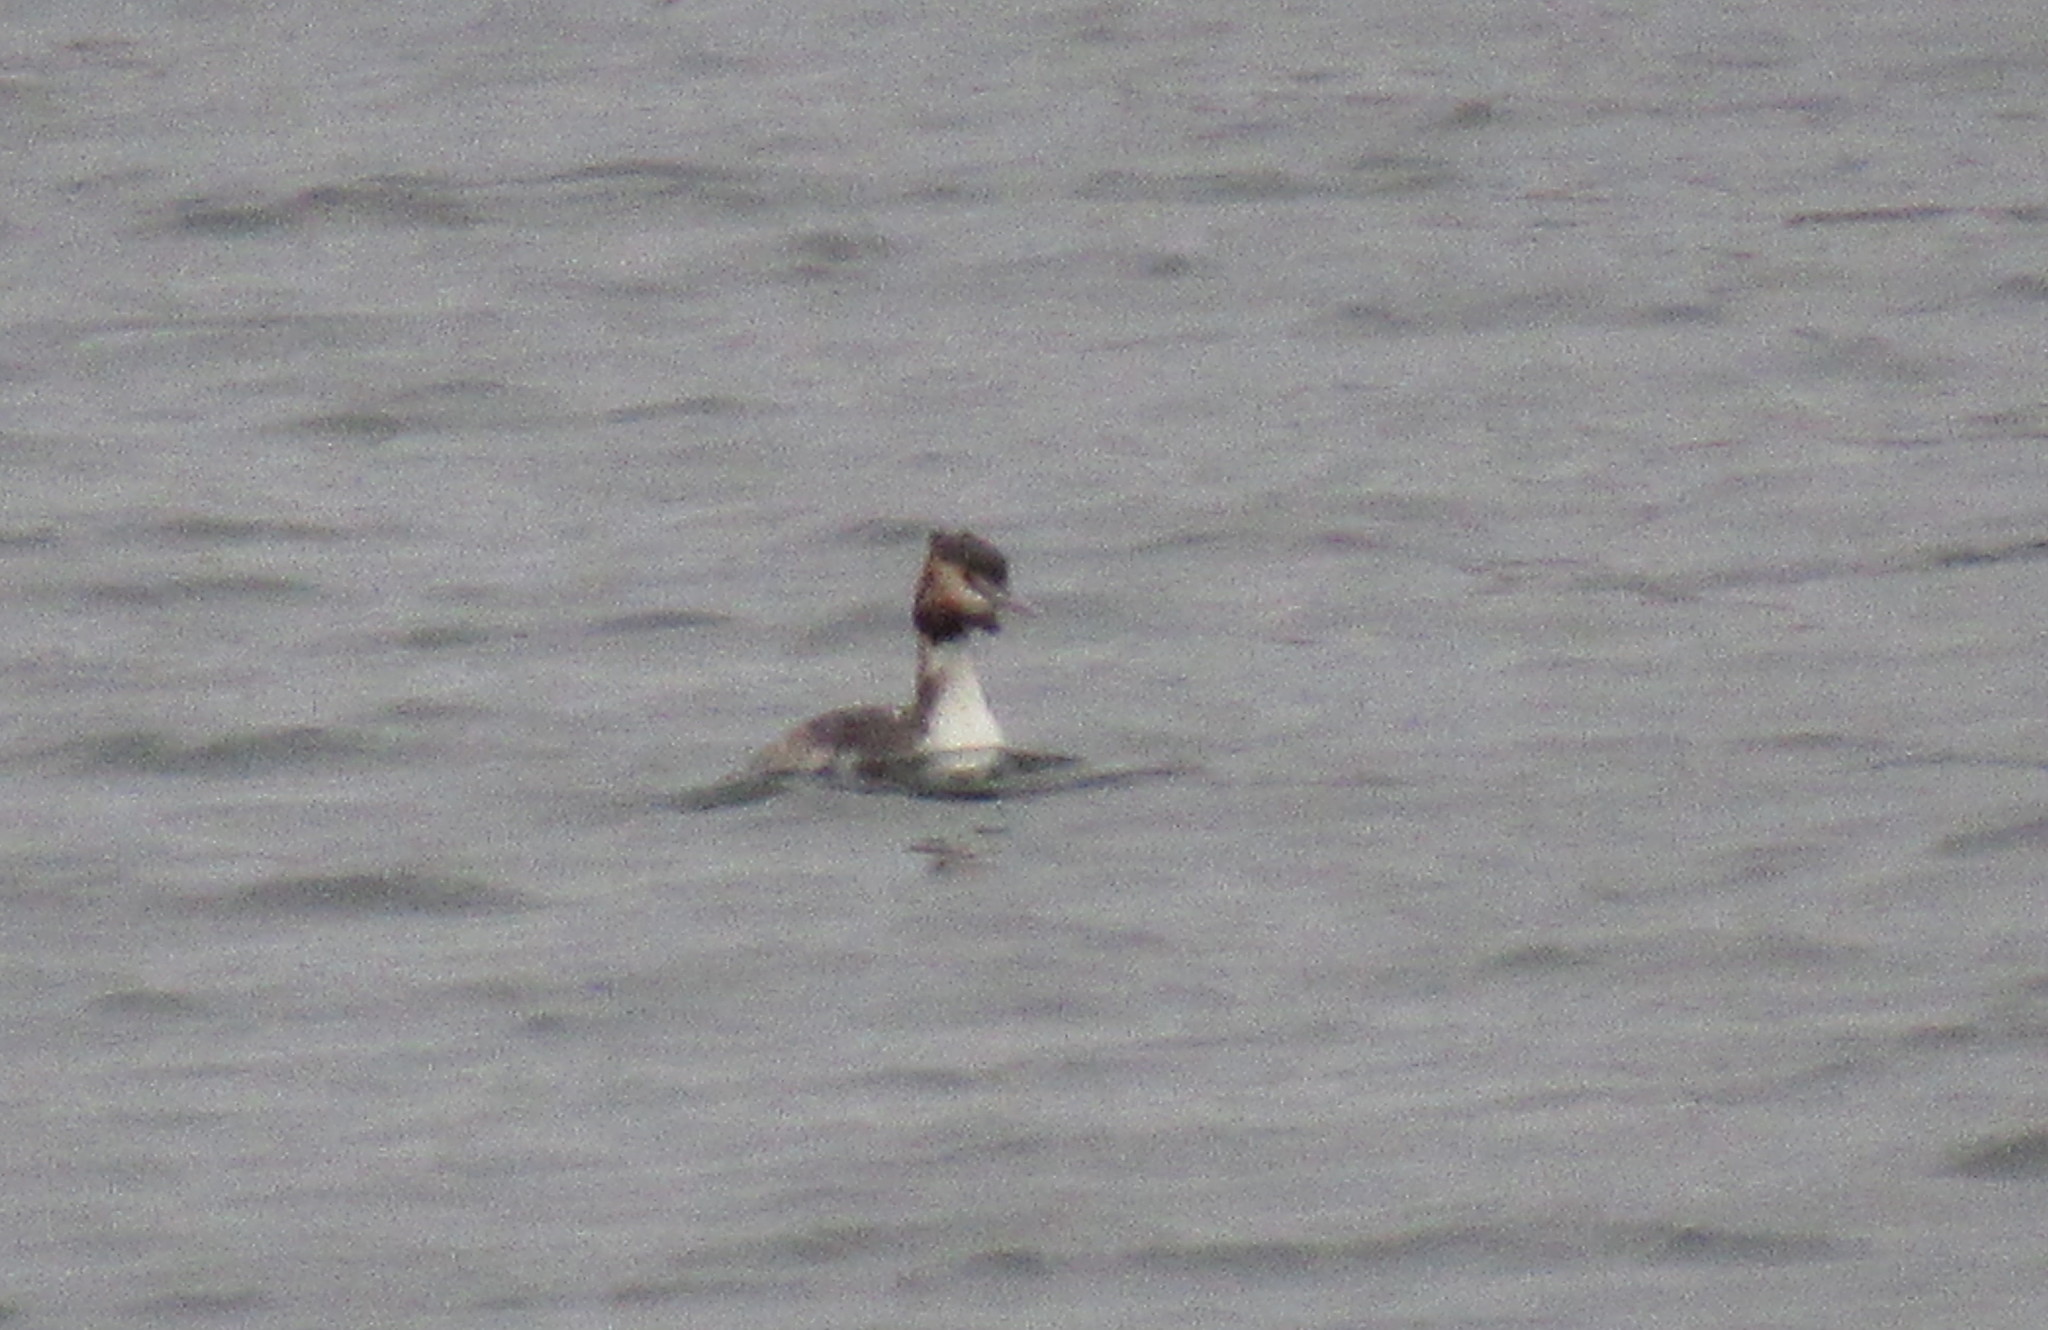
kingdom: Animalia
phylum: Chordata
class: Aves
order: Podicipediformes
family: Podicipedidae
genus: Podiceps
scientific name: Podiceps cristatus
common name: Great crested grebe
